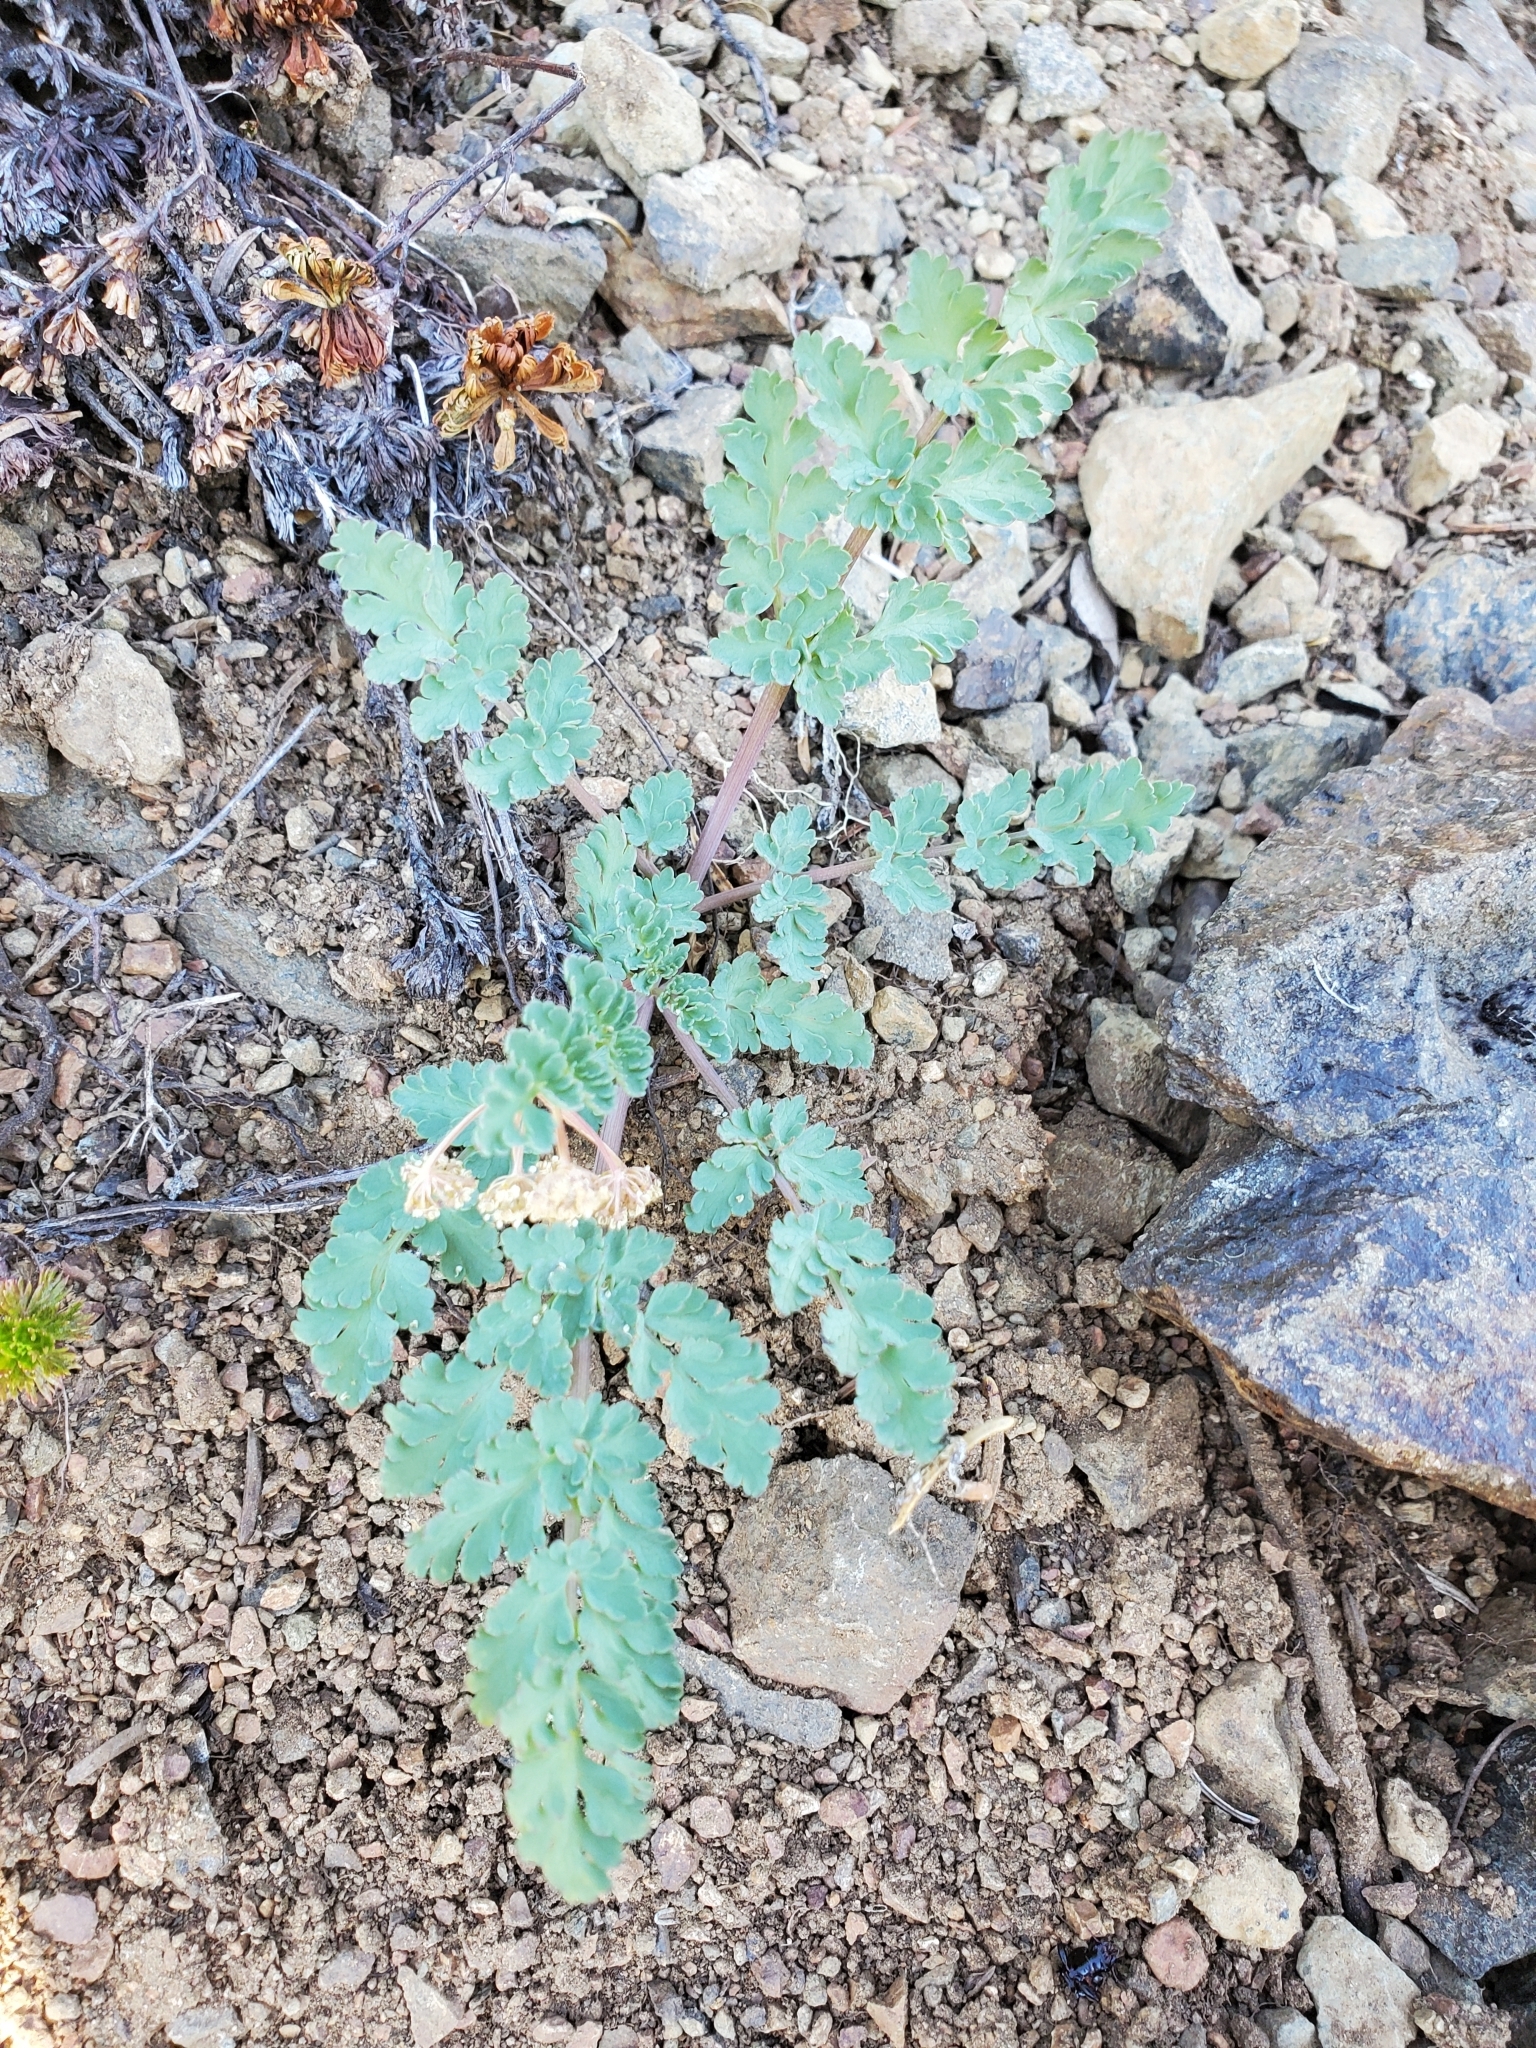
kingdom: Plantae
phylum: Tracheophyta
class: Magnoliopsida
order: Apiales
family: Apiaceae
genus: Lomatium
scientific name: Lomatium martindalei
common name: Cascade desert-parsley
